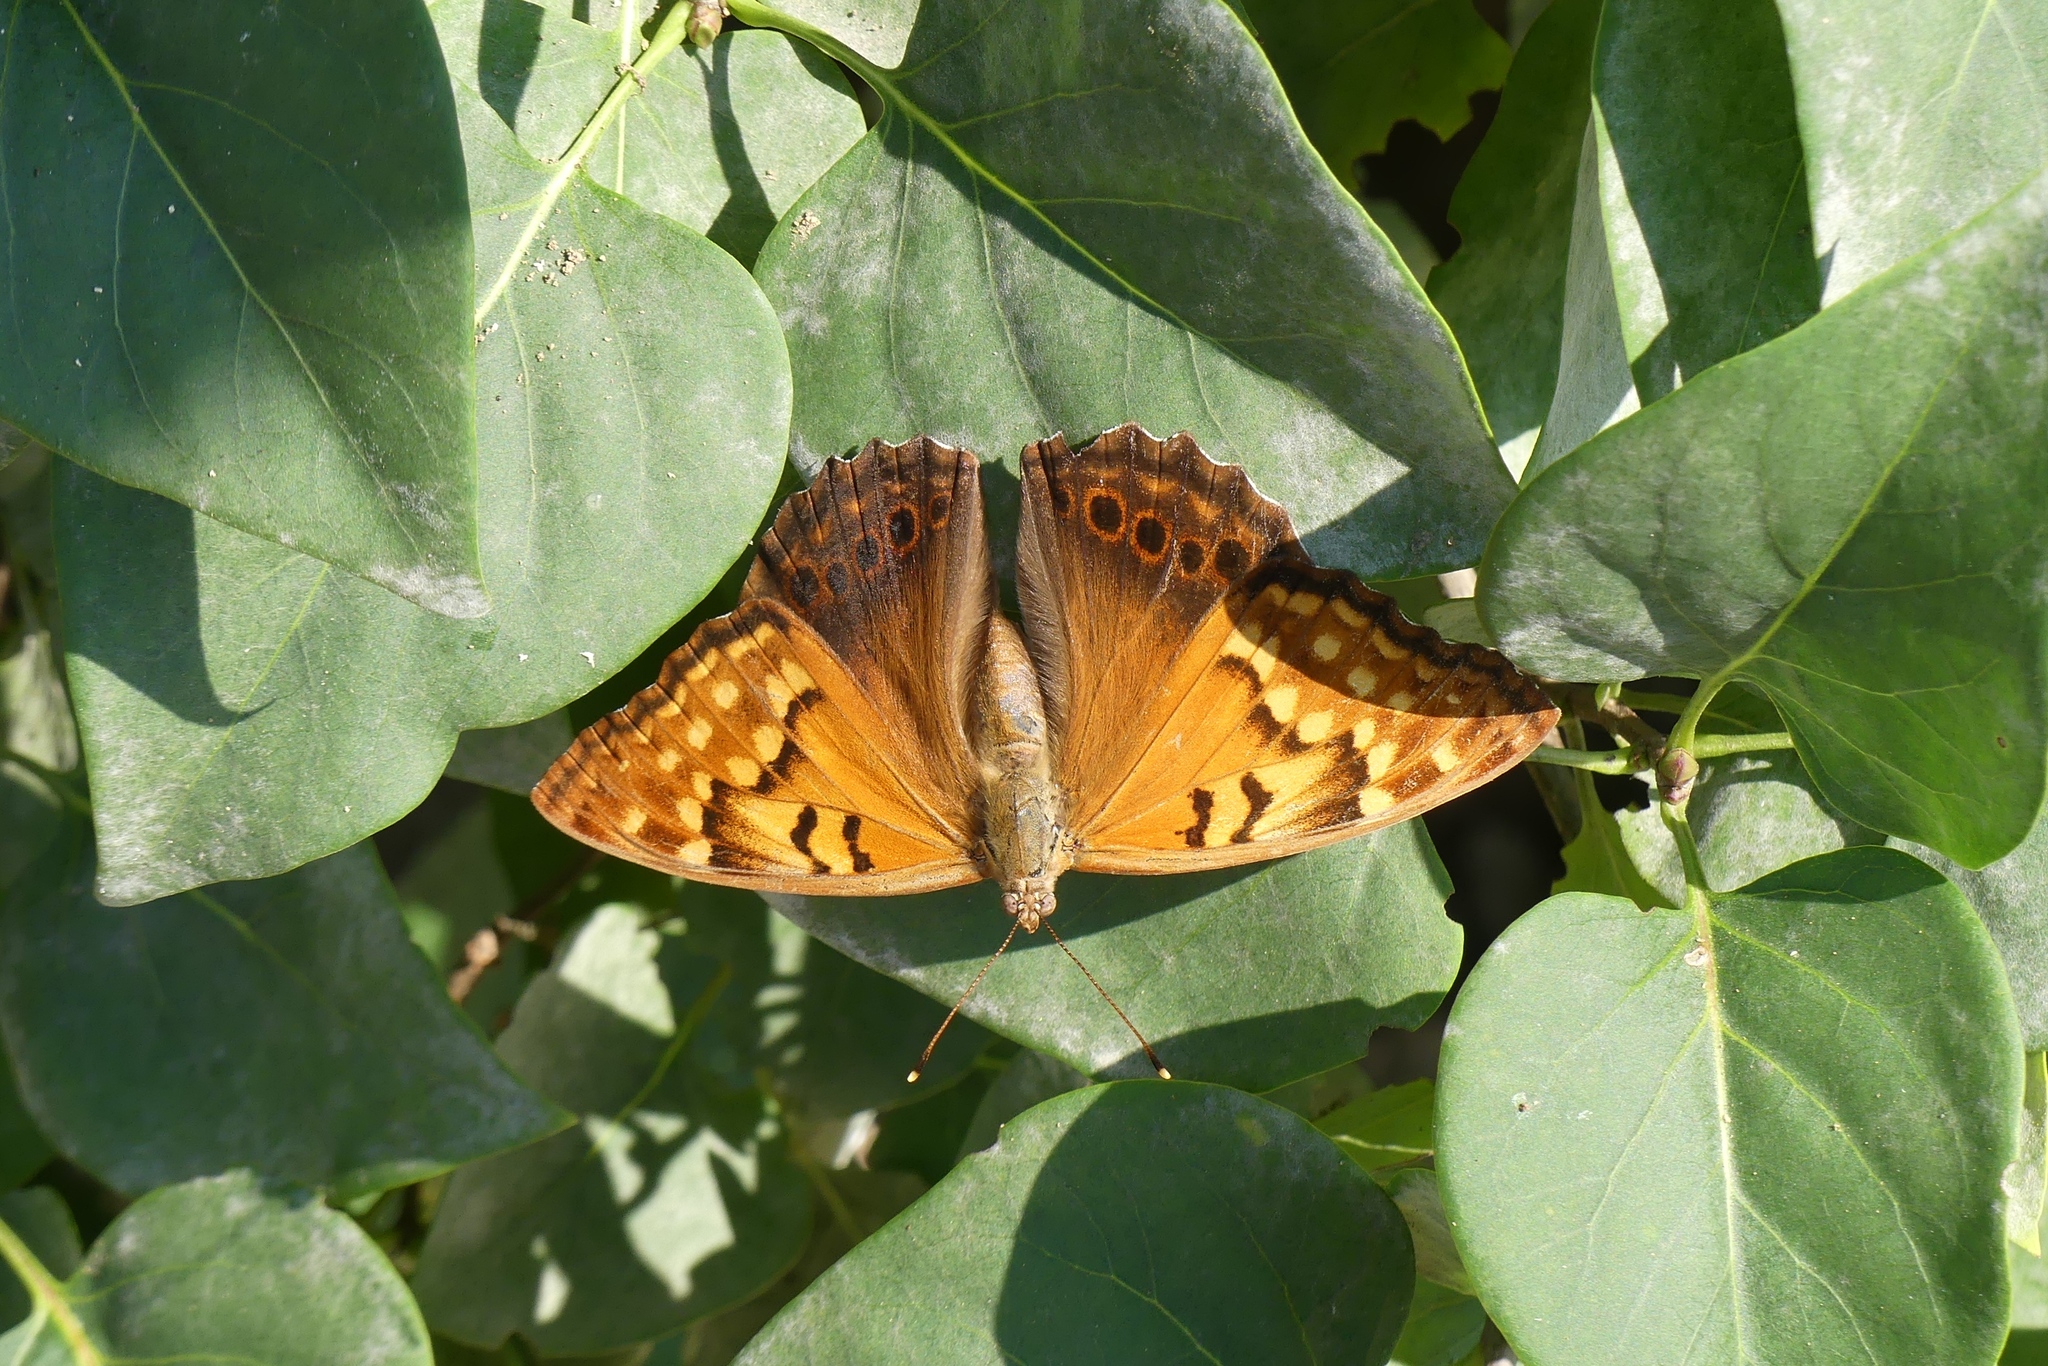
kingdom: Animalia
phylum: Arthropoda
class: Insecta
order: Lepidoptera
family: Nymphalidae
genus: Asterocampa
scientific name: Asterocampa clyton
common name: Tawny emperor
